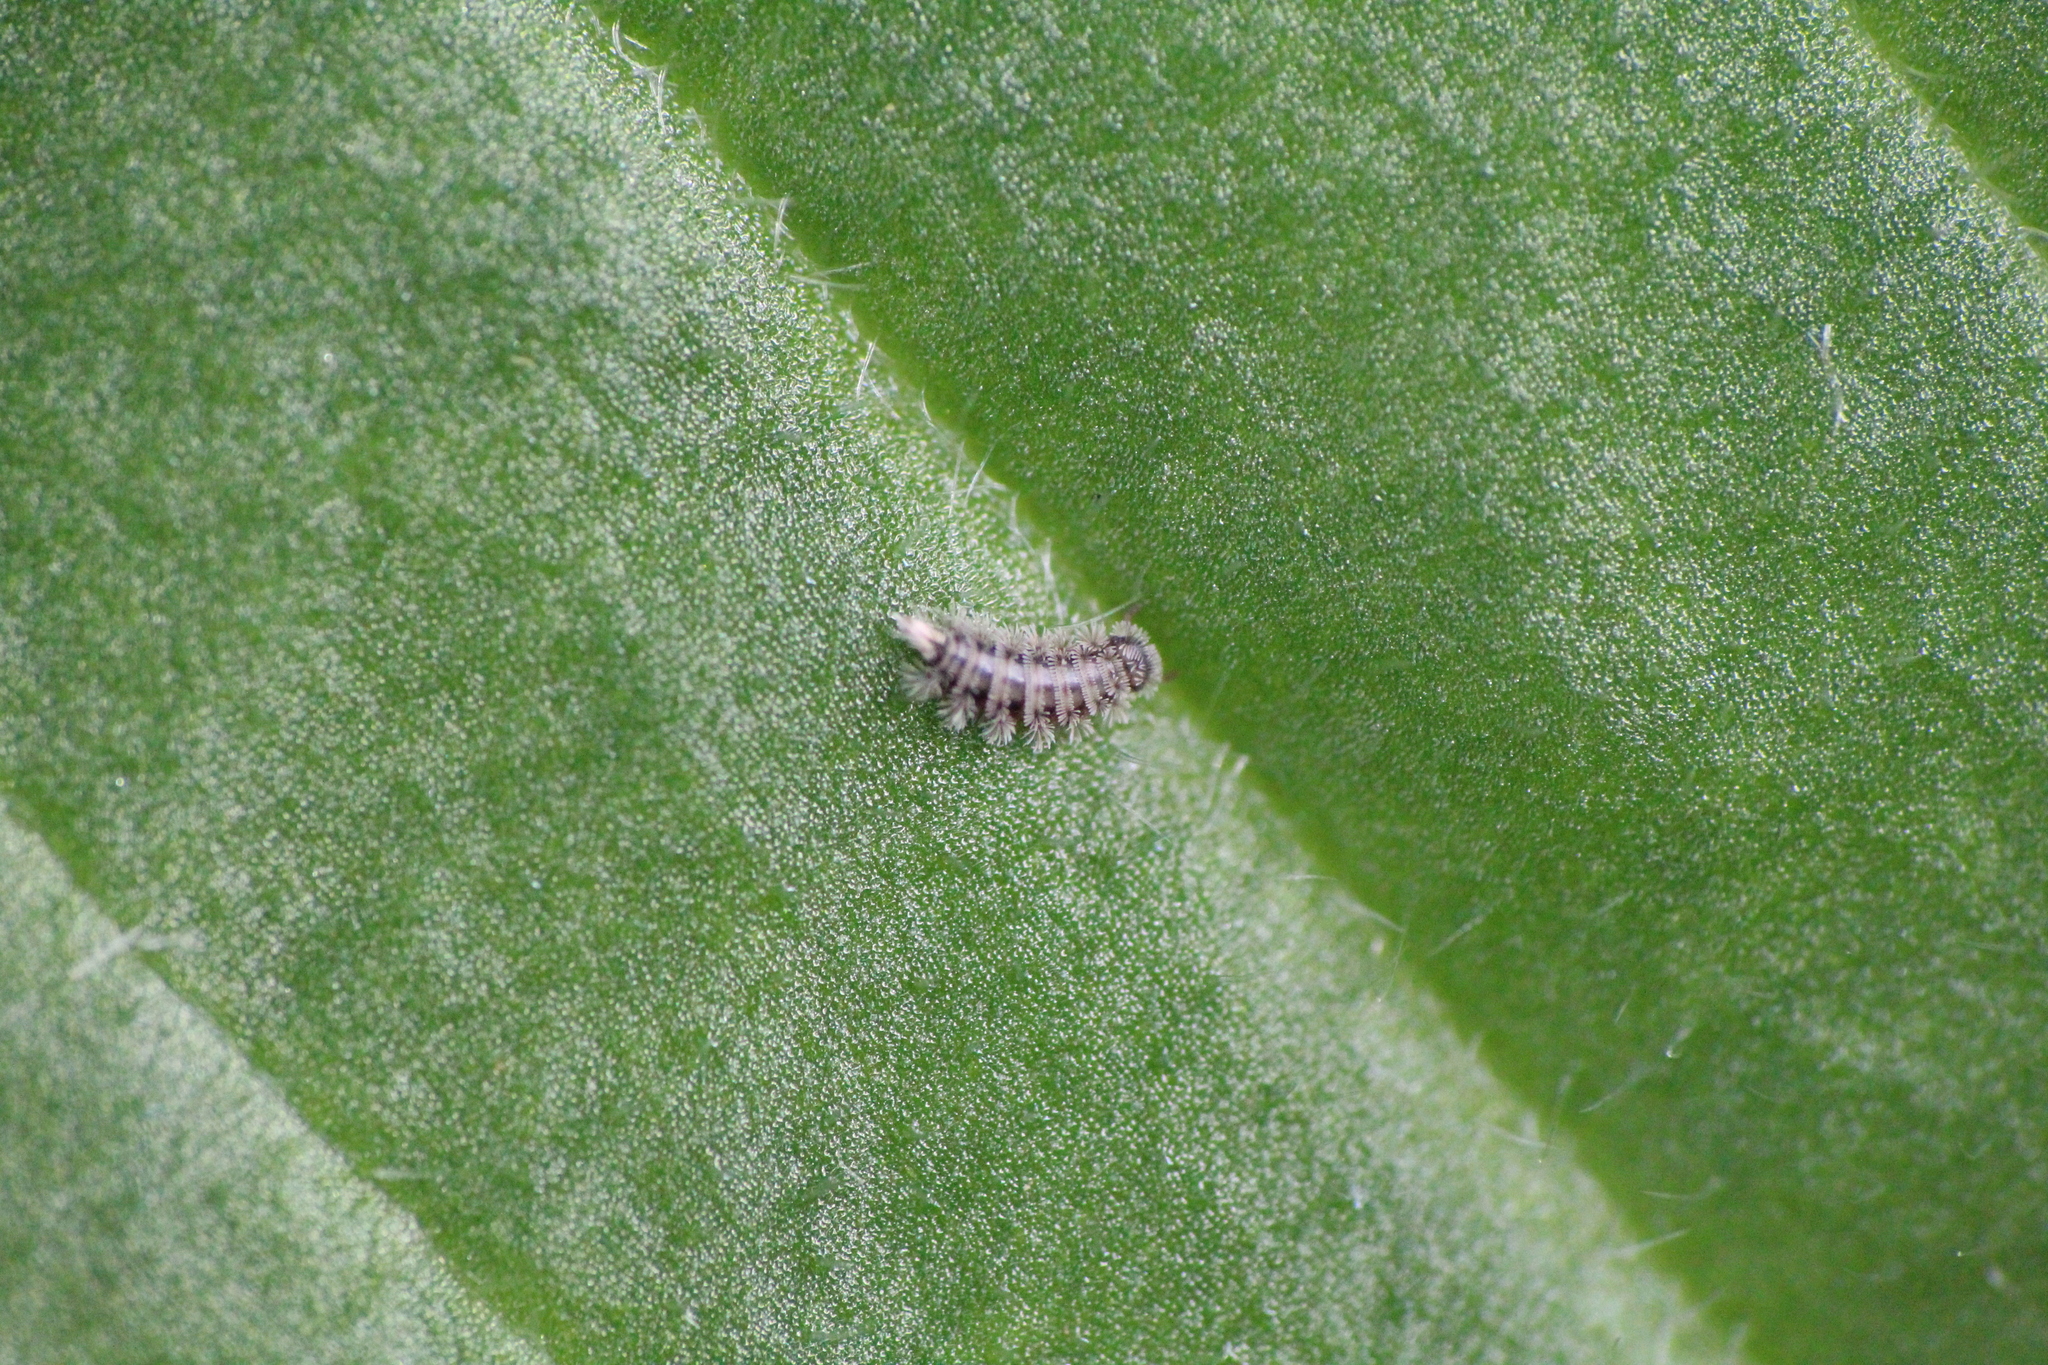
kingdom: Animalia
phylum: Arthropoda
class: Diplopoda
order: Polyxenida
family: Polyxenidae
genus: Polyxenus
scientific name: Polyxenus lagurus
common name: Bristly millipede
